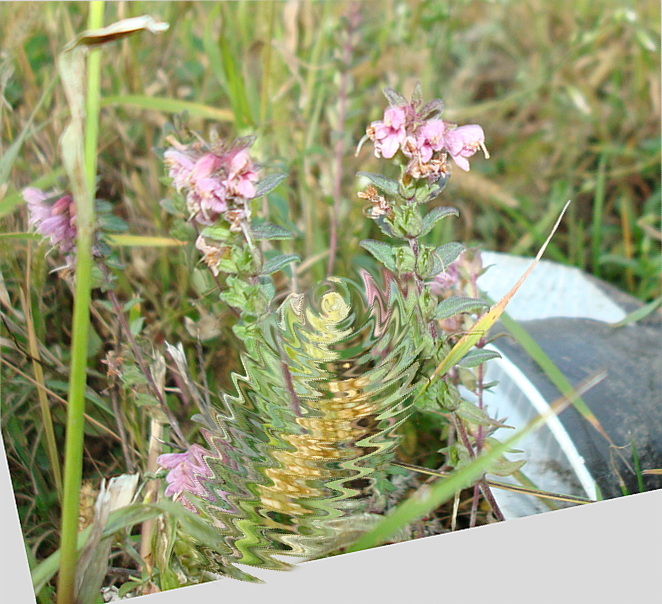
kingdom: Plantae
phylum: Tracheophyta
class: Magnoliopsida
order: Lamiales
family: Orobanchaceae
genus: Odontites
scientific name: Odontites vulgaris
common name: Broomrape
